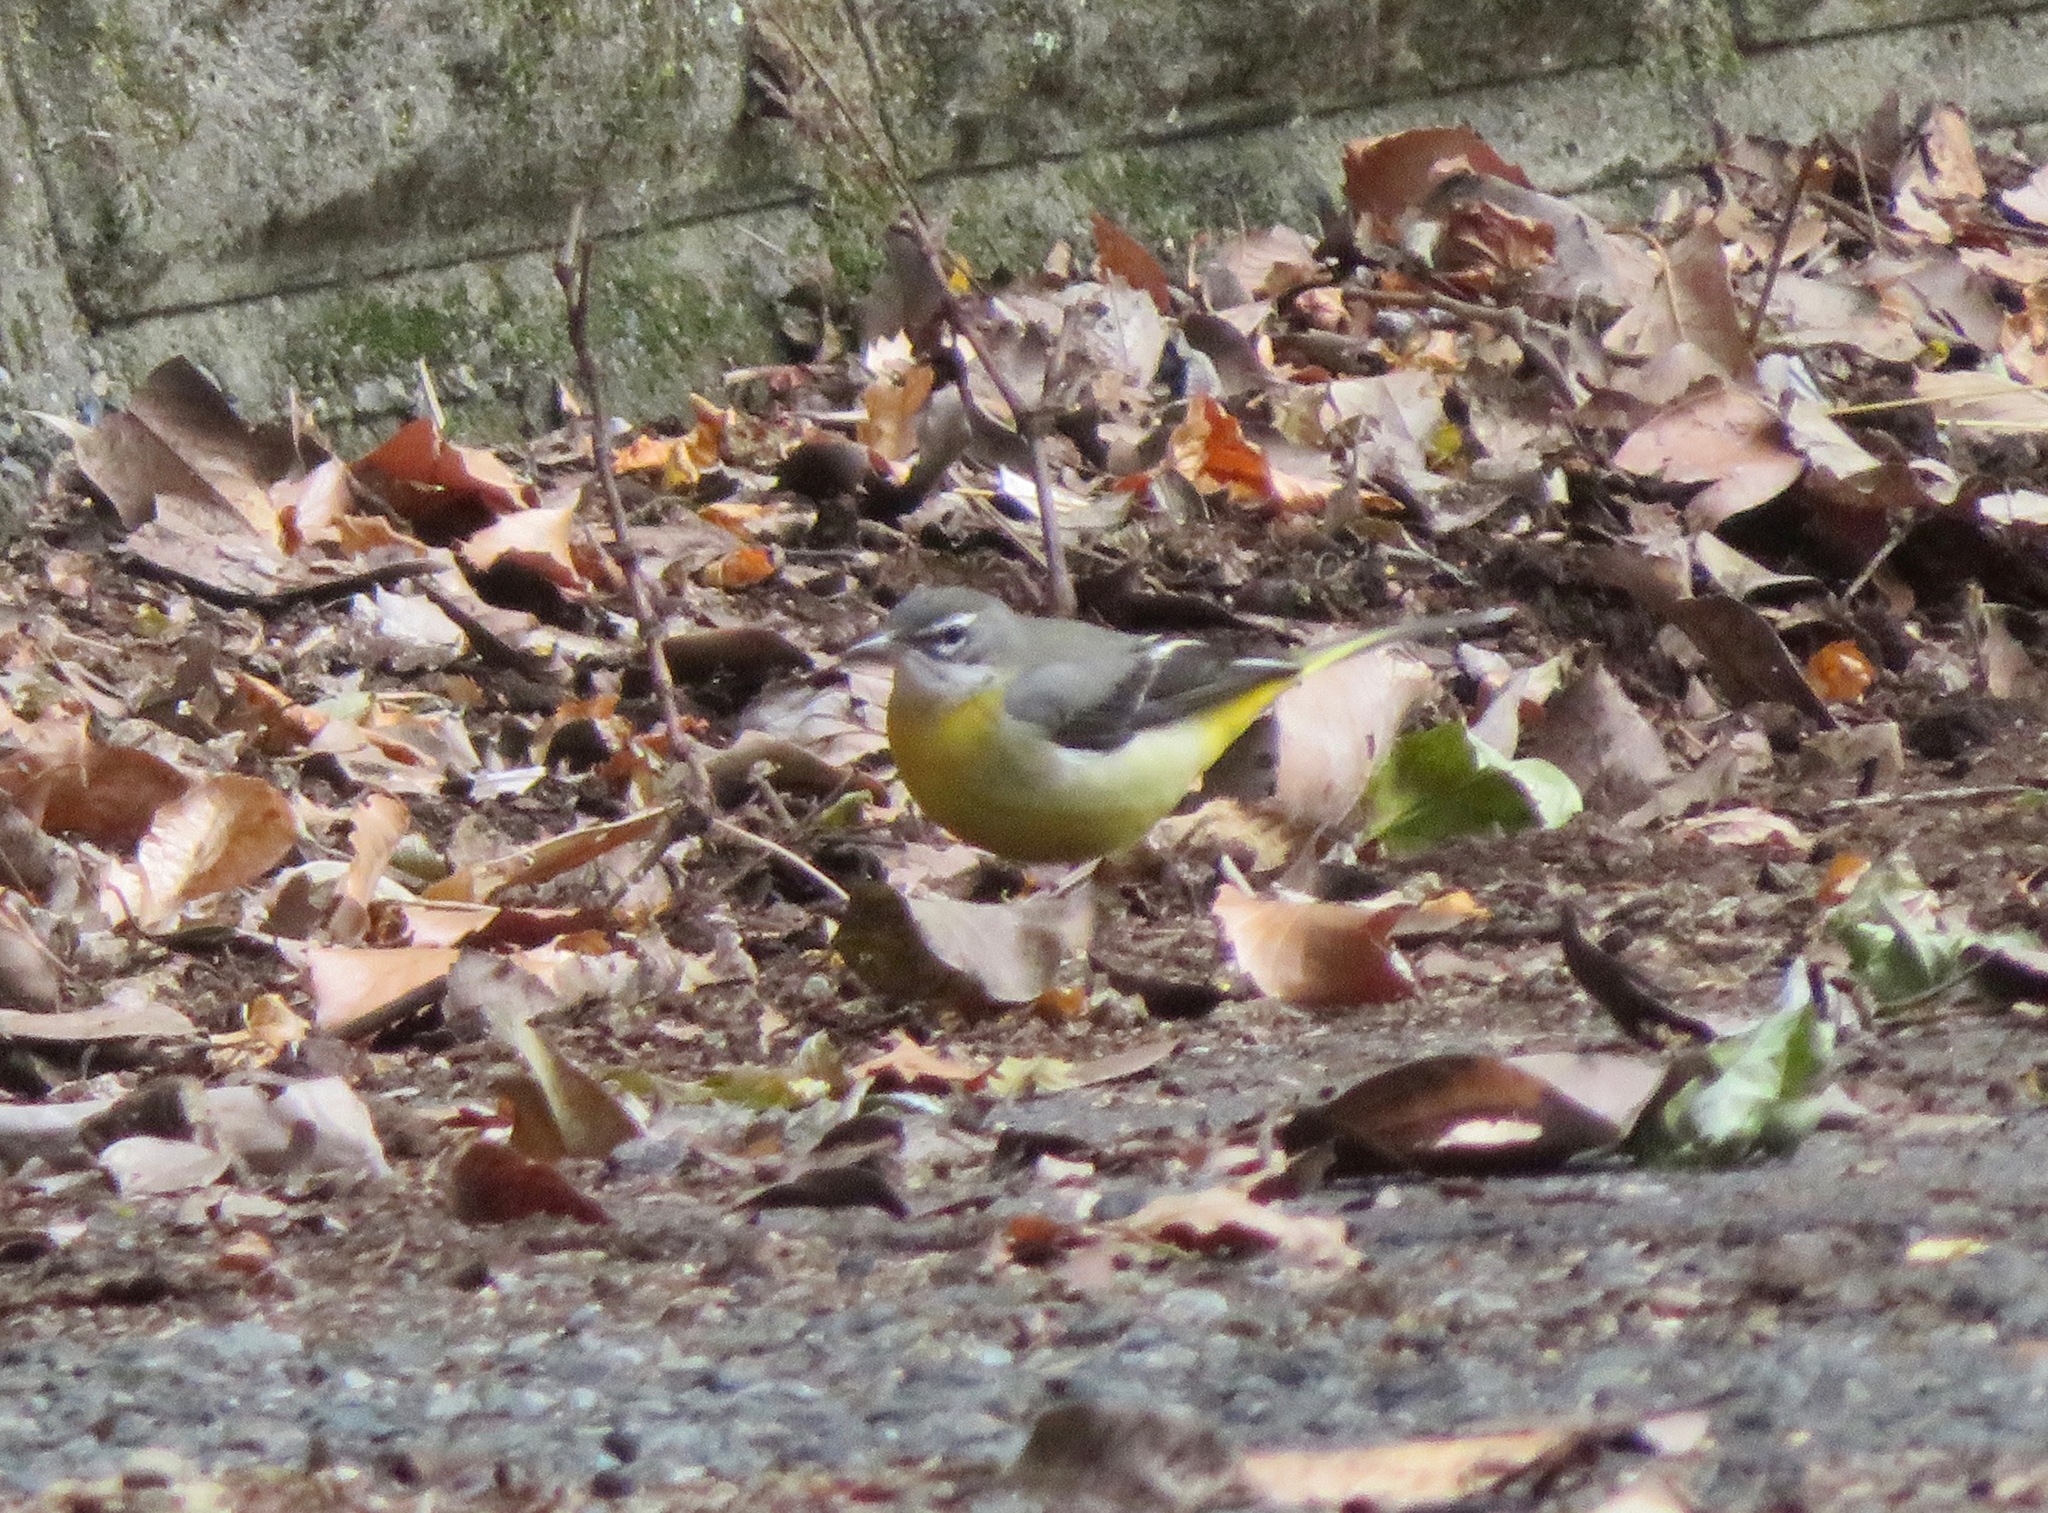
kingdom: Animalia
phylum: Chordata
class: Aves
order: Passeriformes
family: Motacillidae
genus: Motacilla
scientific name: Motacilla cinerea
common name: Grey wagtail
